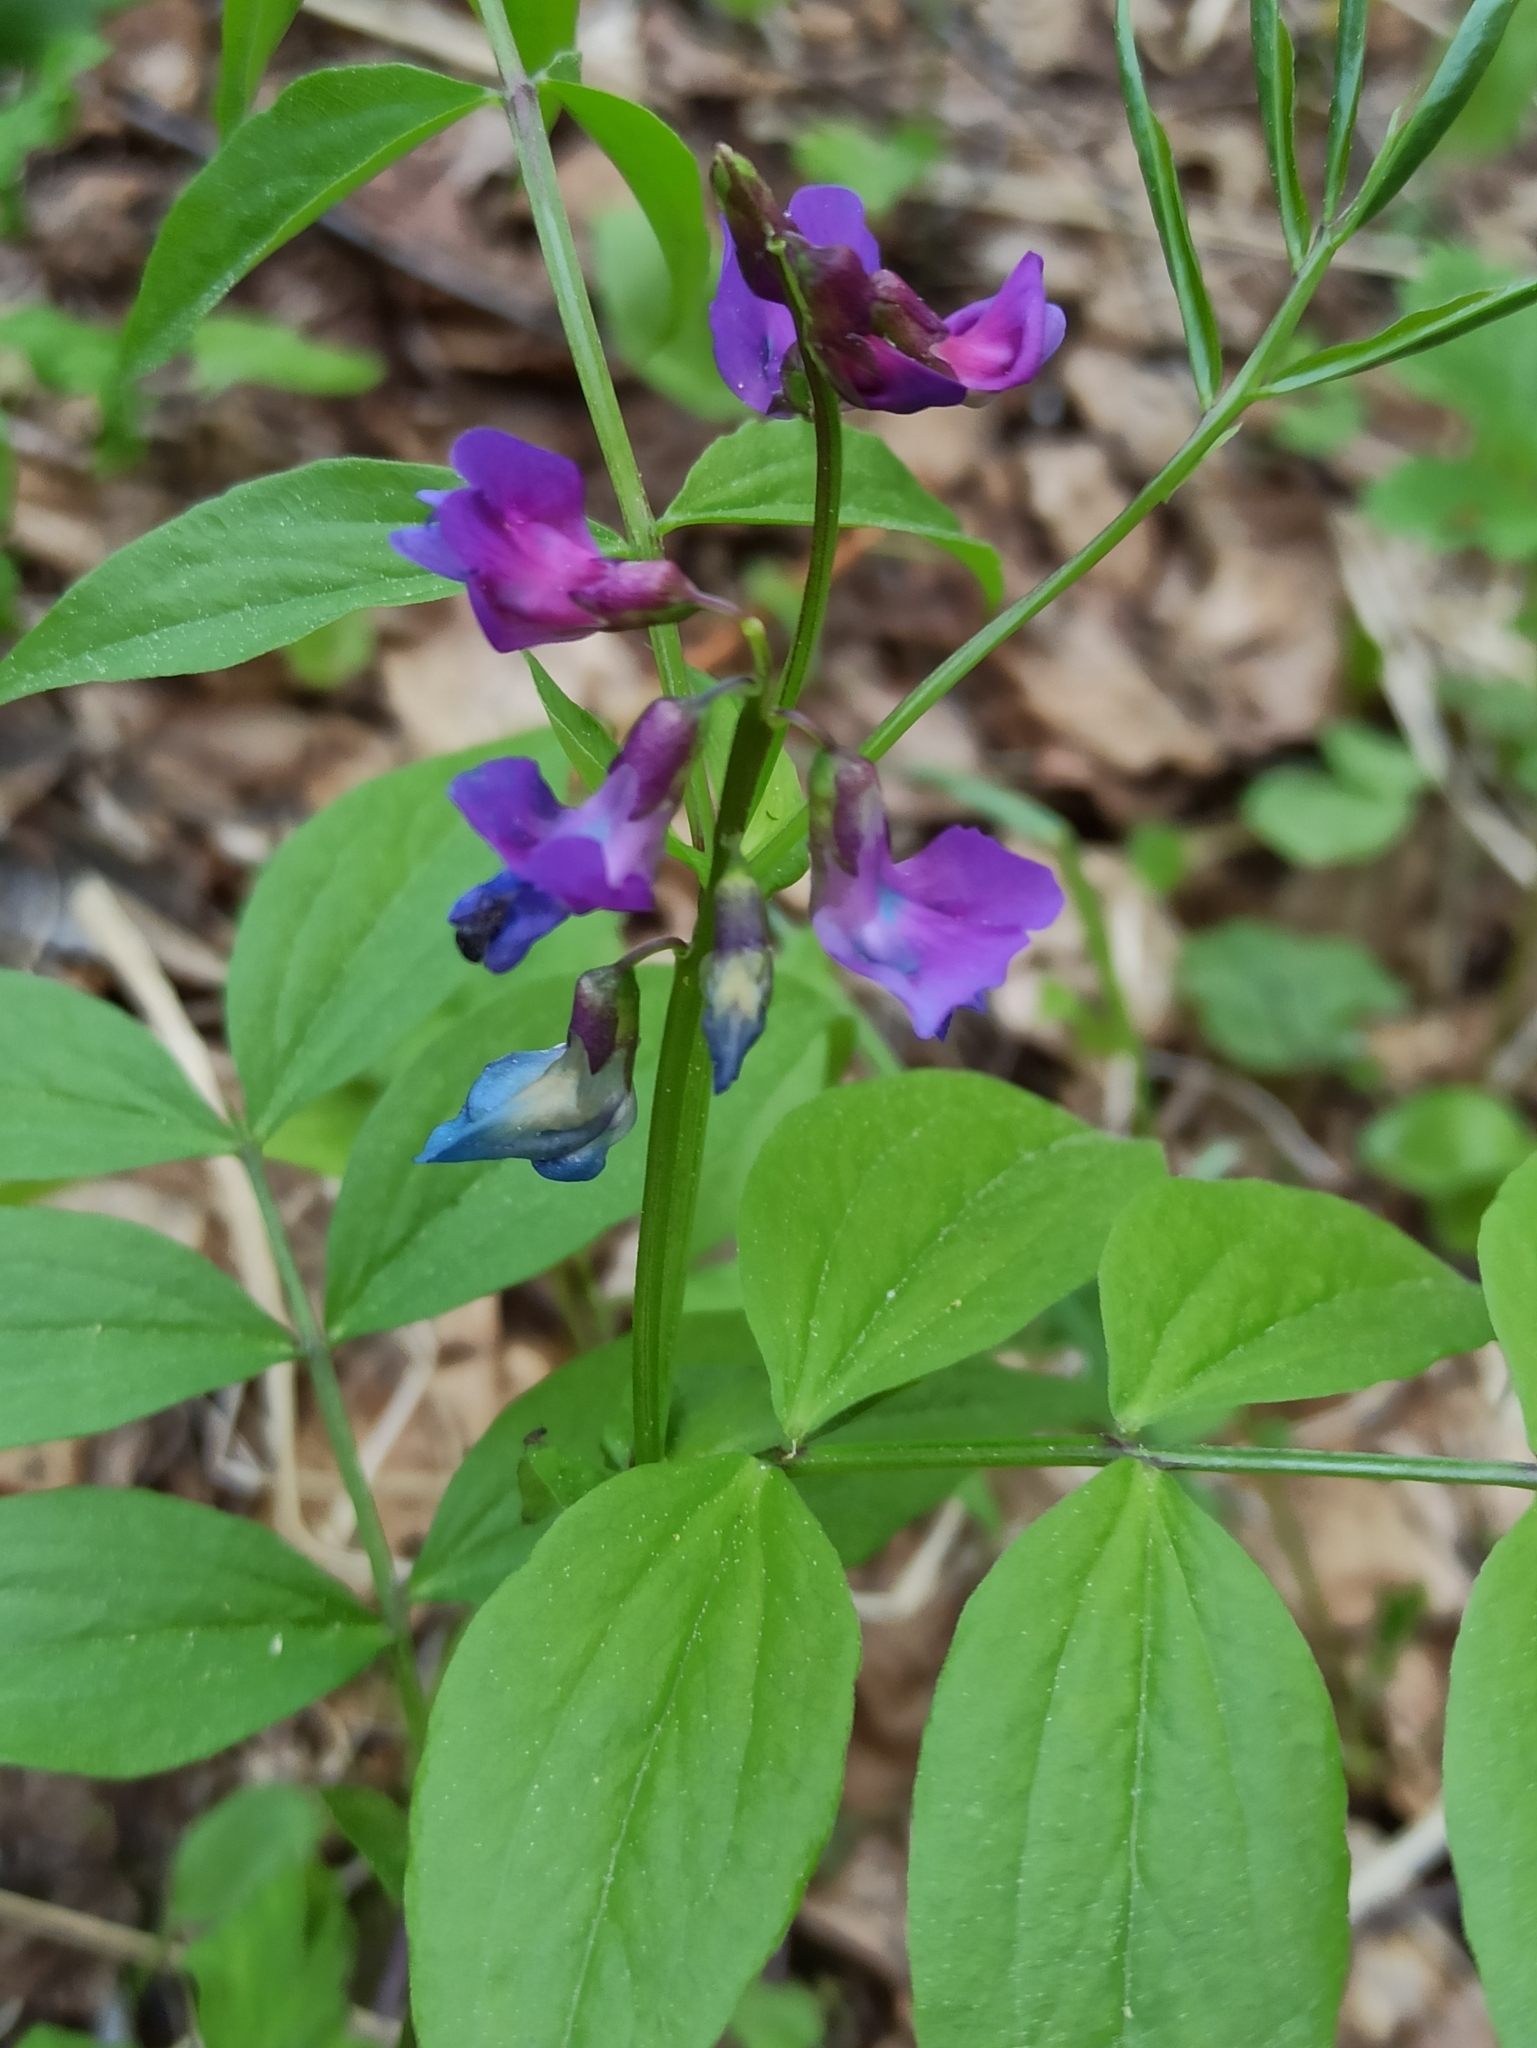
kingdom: Plantae
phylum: Tracheophyta
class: Magnoliopsida
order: Fabales
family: Fabaceae
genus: Lathyrus
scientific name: Lathyrus vernus
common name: Spring pea
